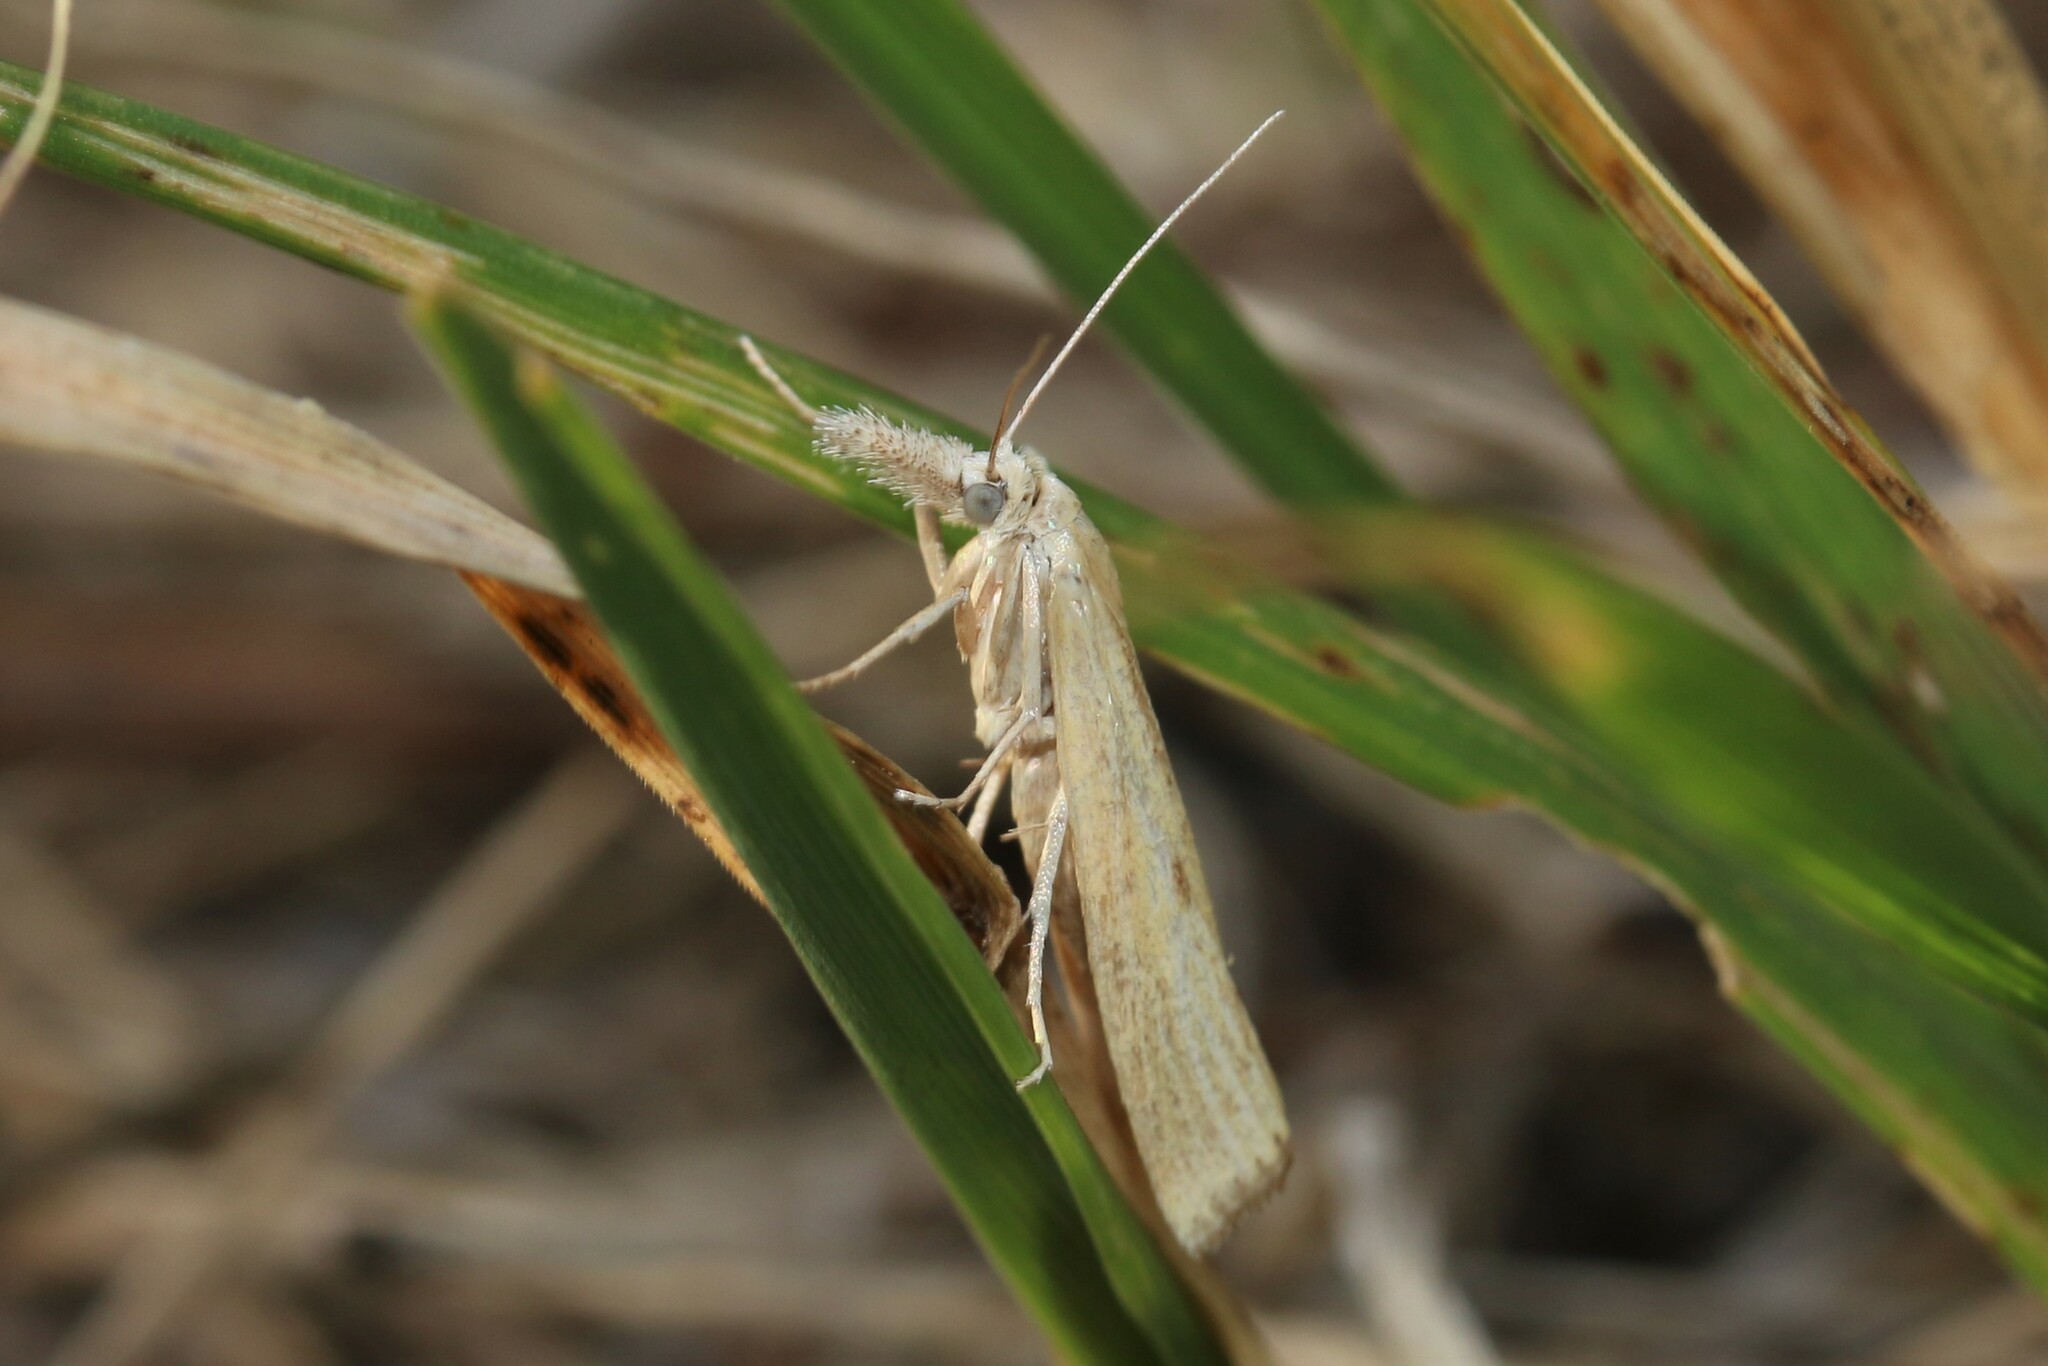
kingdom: Animalia
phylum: Arthropoda
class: Insecta
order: Lepidoptera
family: Crambidae
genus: Agriphila
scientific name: Agriphila inquinatella
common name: Barred grass-veneer
